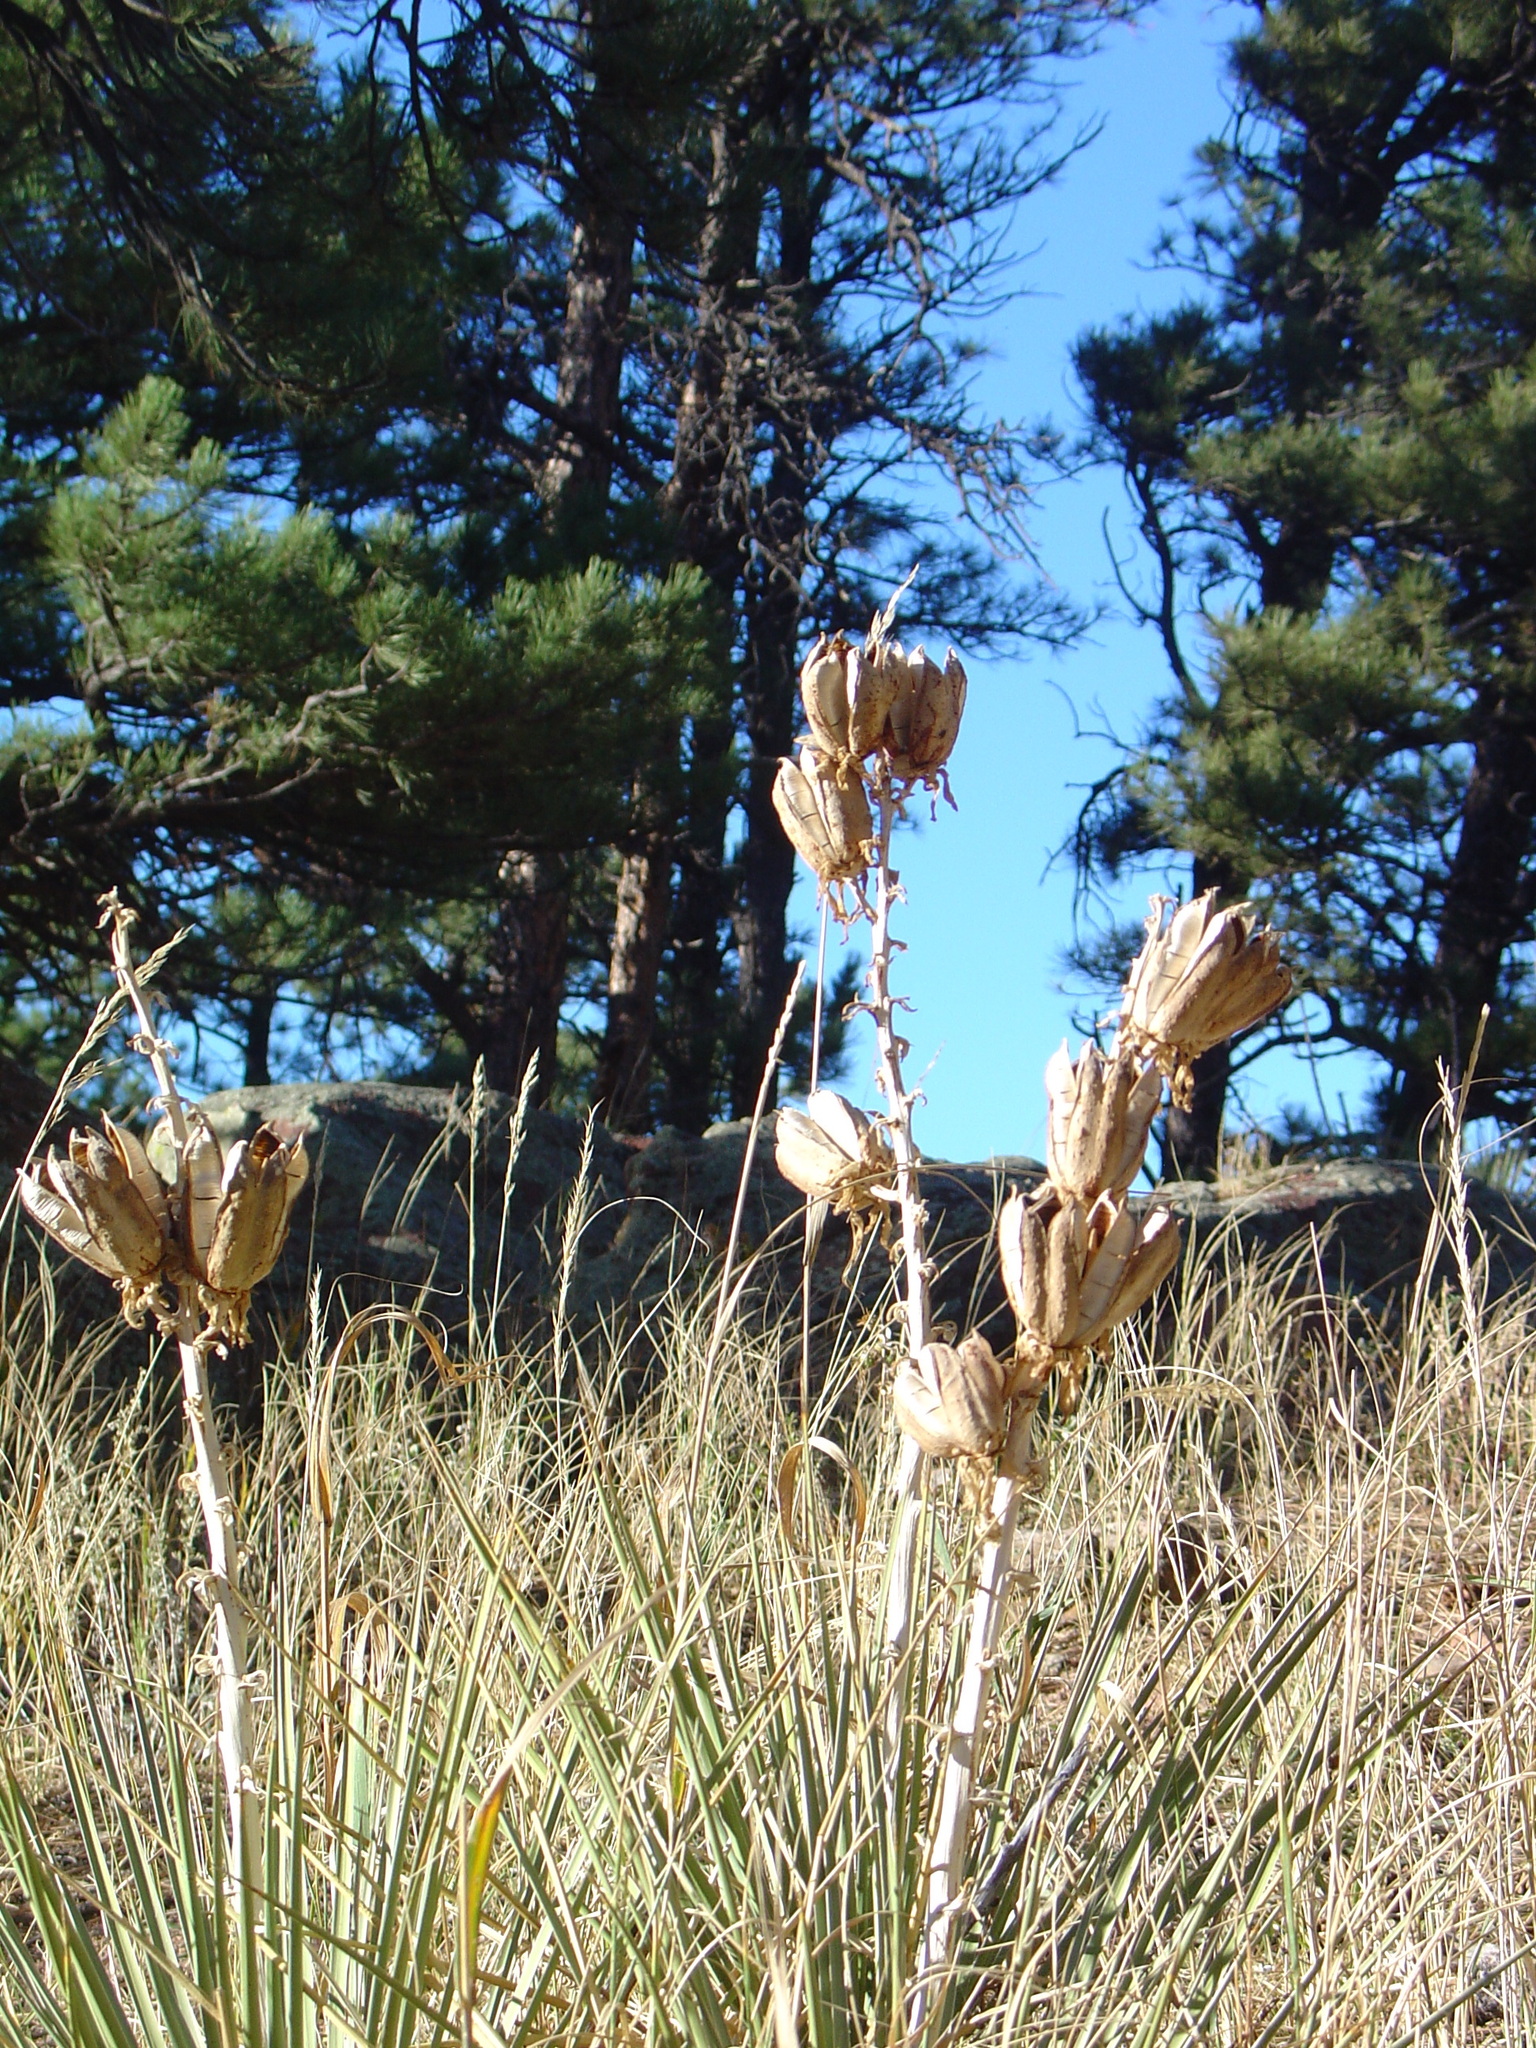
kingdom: Plantae
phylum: Tracheophyta
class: Liliopsida
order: Asparagales
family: Asparagaceae
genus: Yucca
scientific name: Yucca glauca
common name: Great plains yucca
